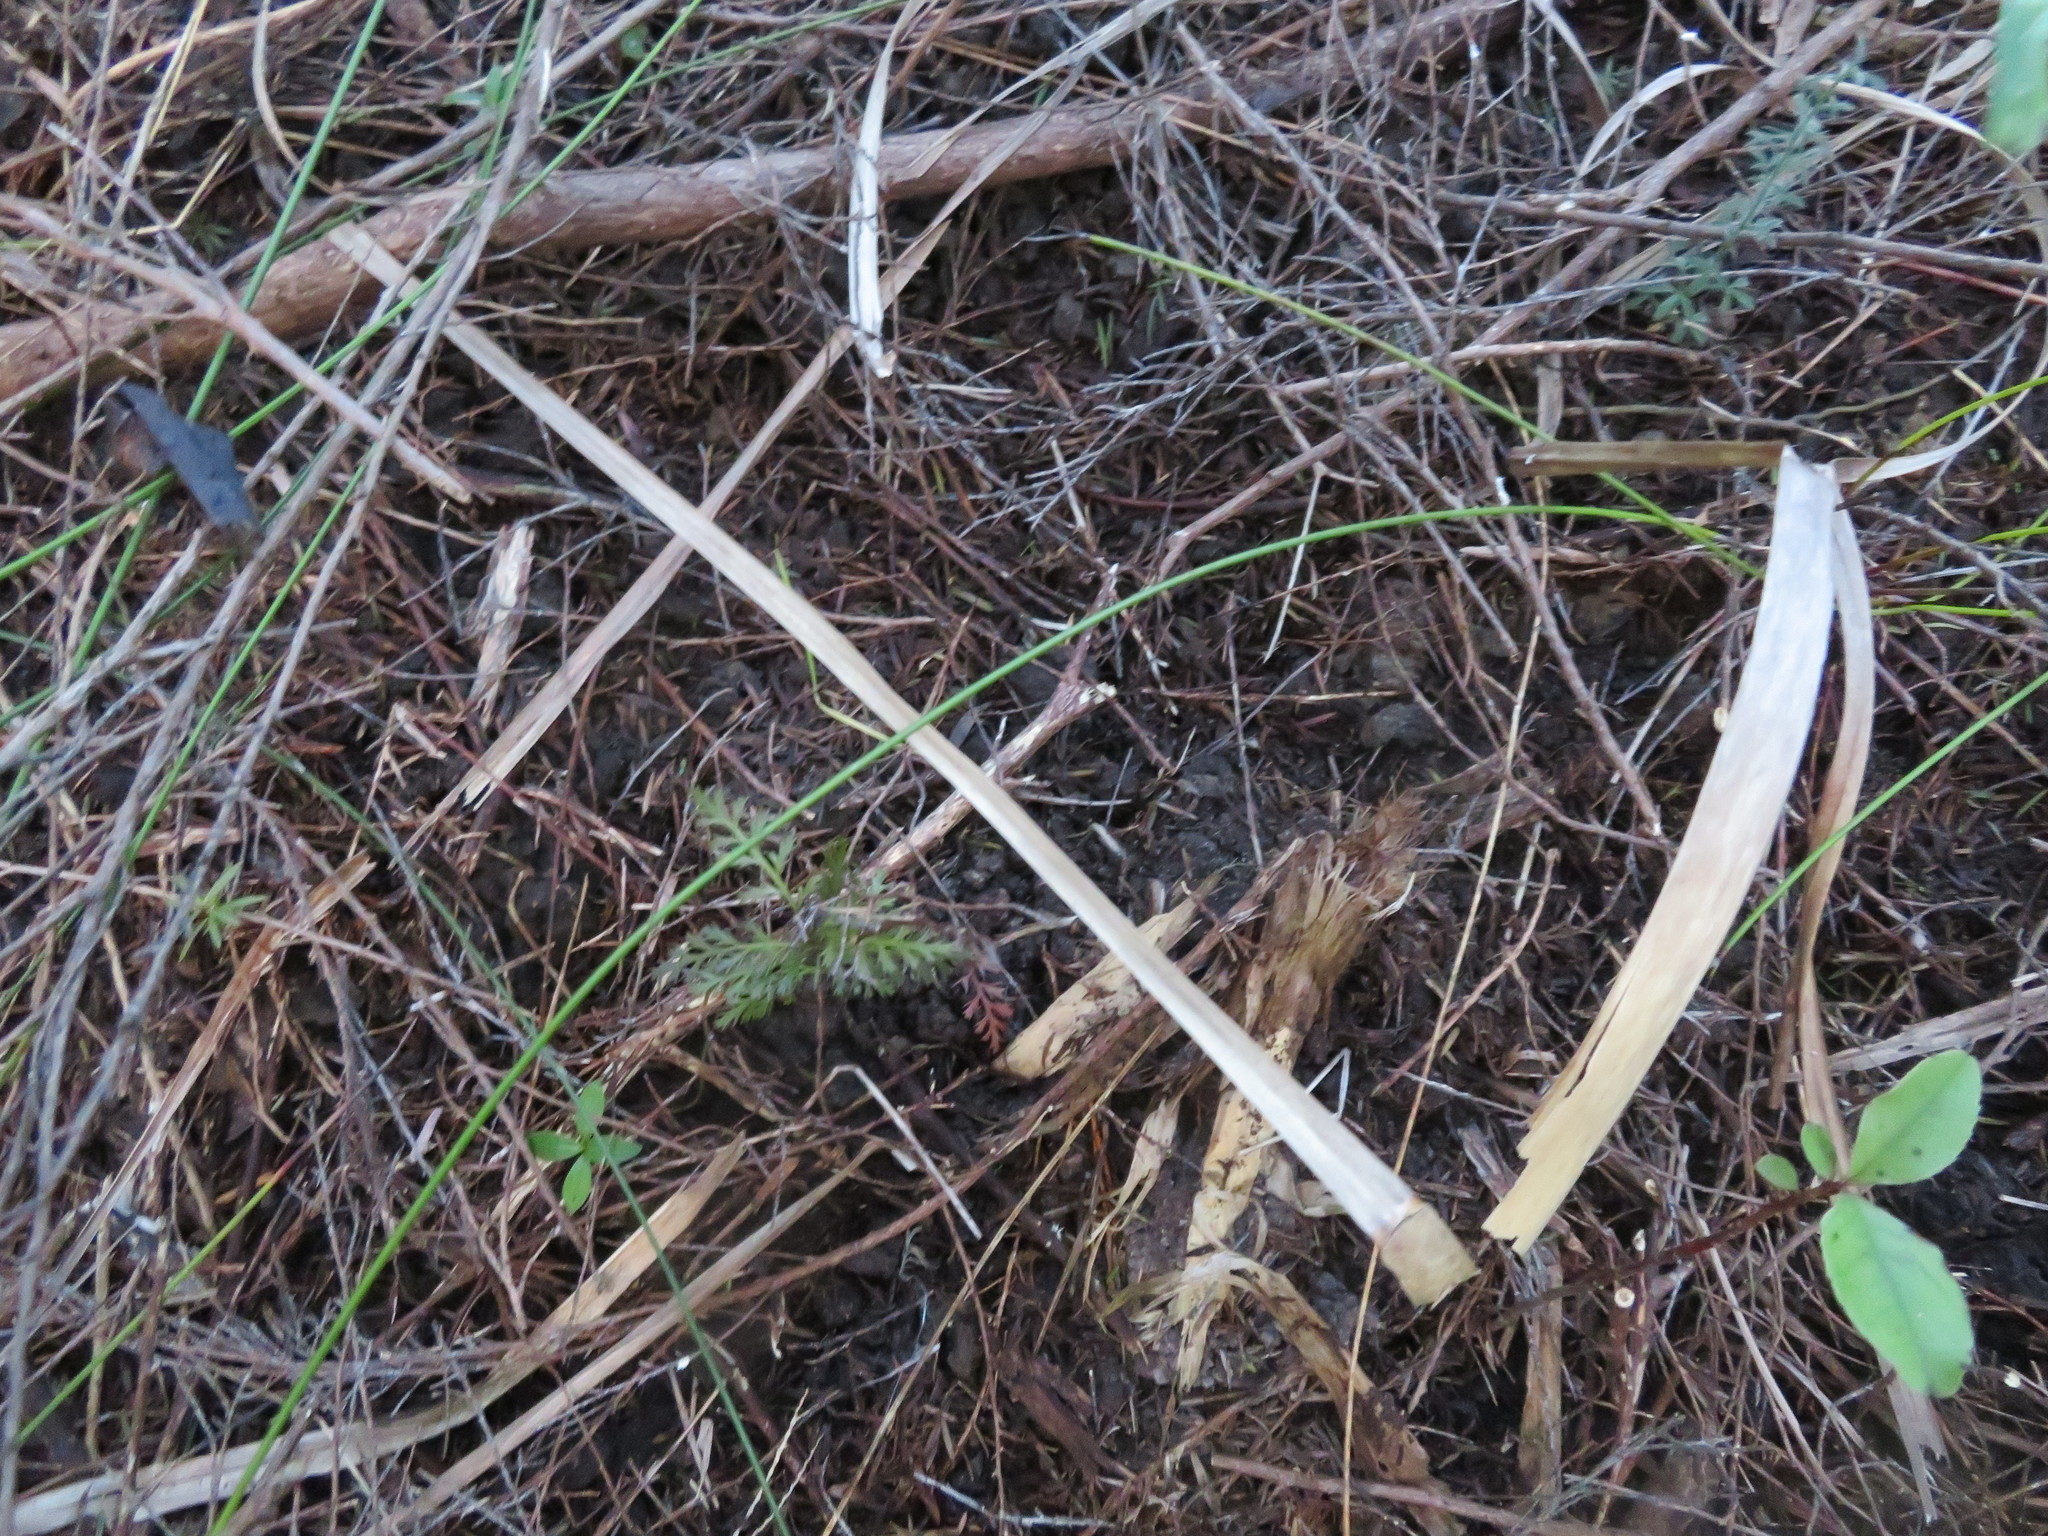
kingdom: Plantae
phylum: Tracheophyta
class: Pinopsida
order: Pinales
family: Phyllocladaceae
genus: Phyllocladus
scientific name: Phyllocladus trichomanoides
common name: Celery pine
